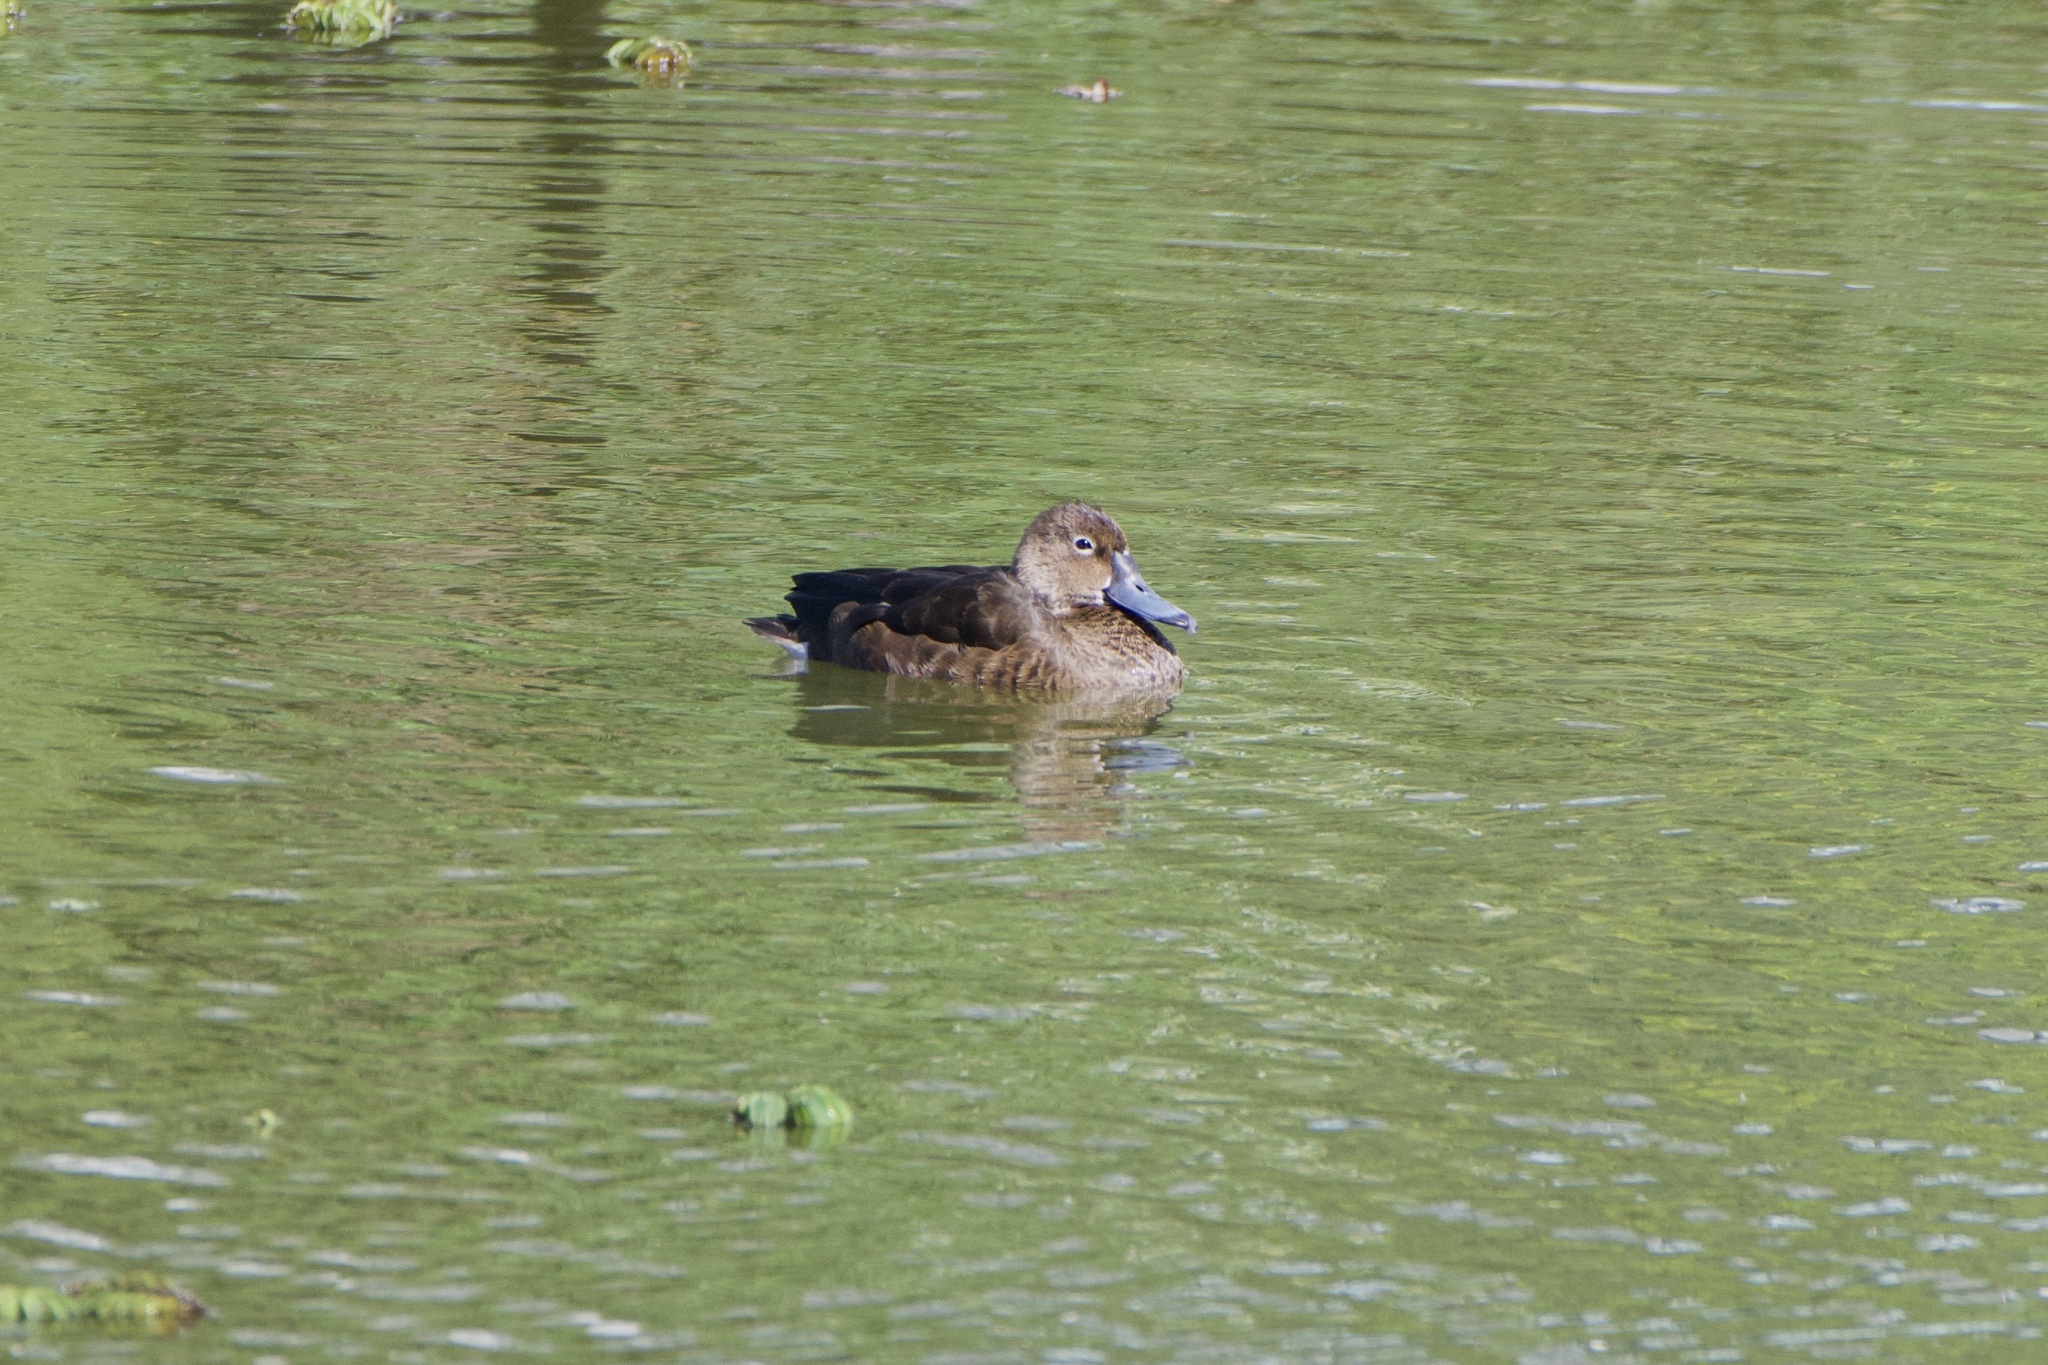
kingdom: Animalia
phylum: Chordata
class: Aves
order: Anseriformes
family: Anatidae
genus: Netta
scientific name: Netta peposaca
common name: Rosy-billed pochard
